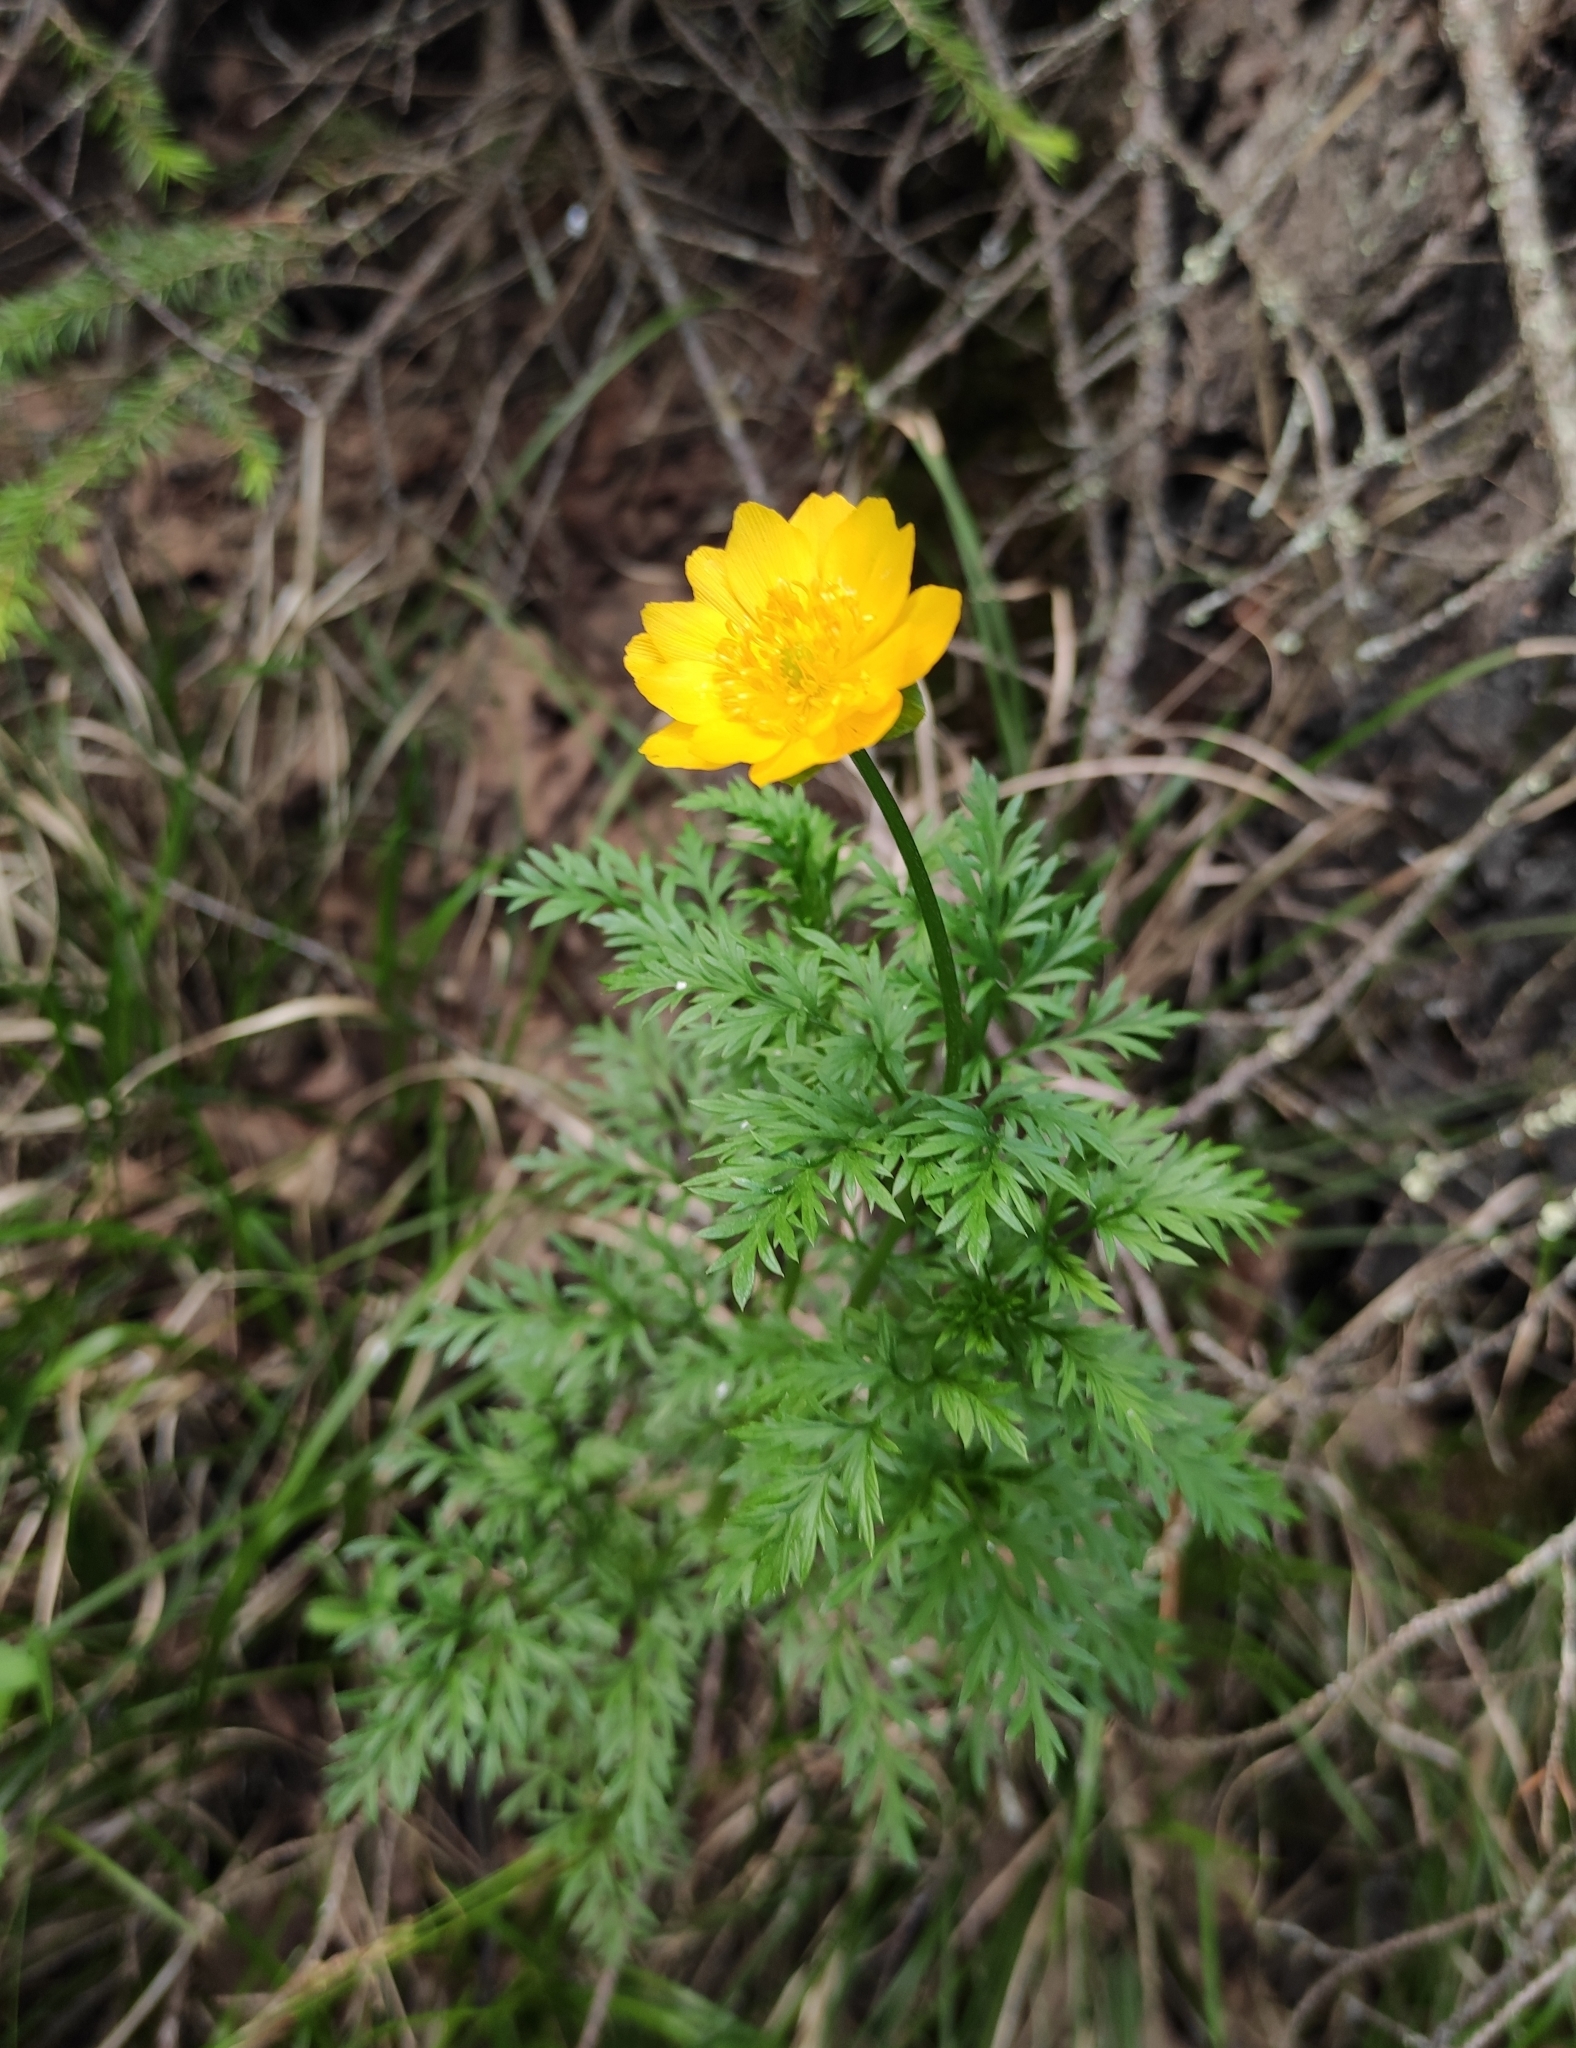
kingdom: Plantae
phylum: Tracheophyta
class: Magnoliopsida
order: Ranunculales
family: Ranunculaceae
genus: Adonis
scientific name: Adonis
